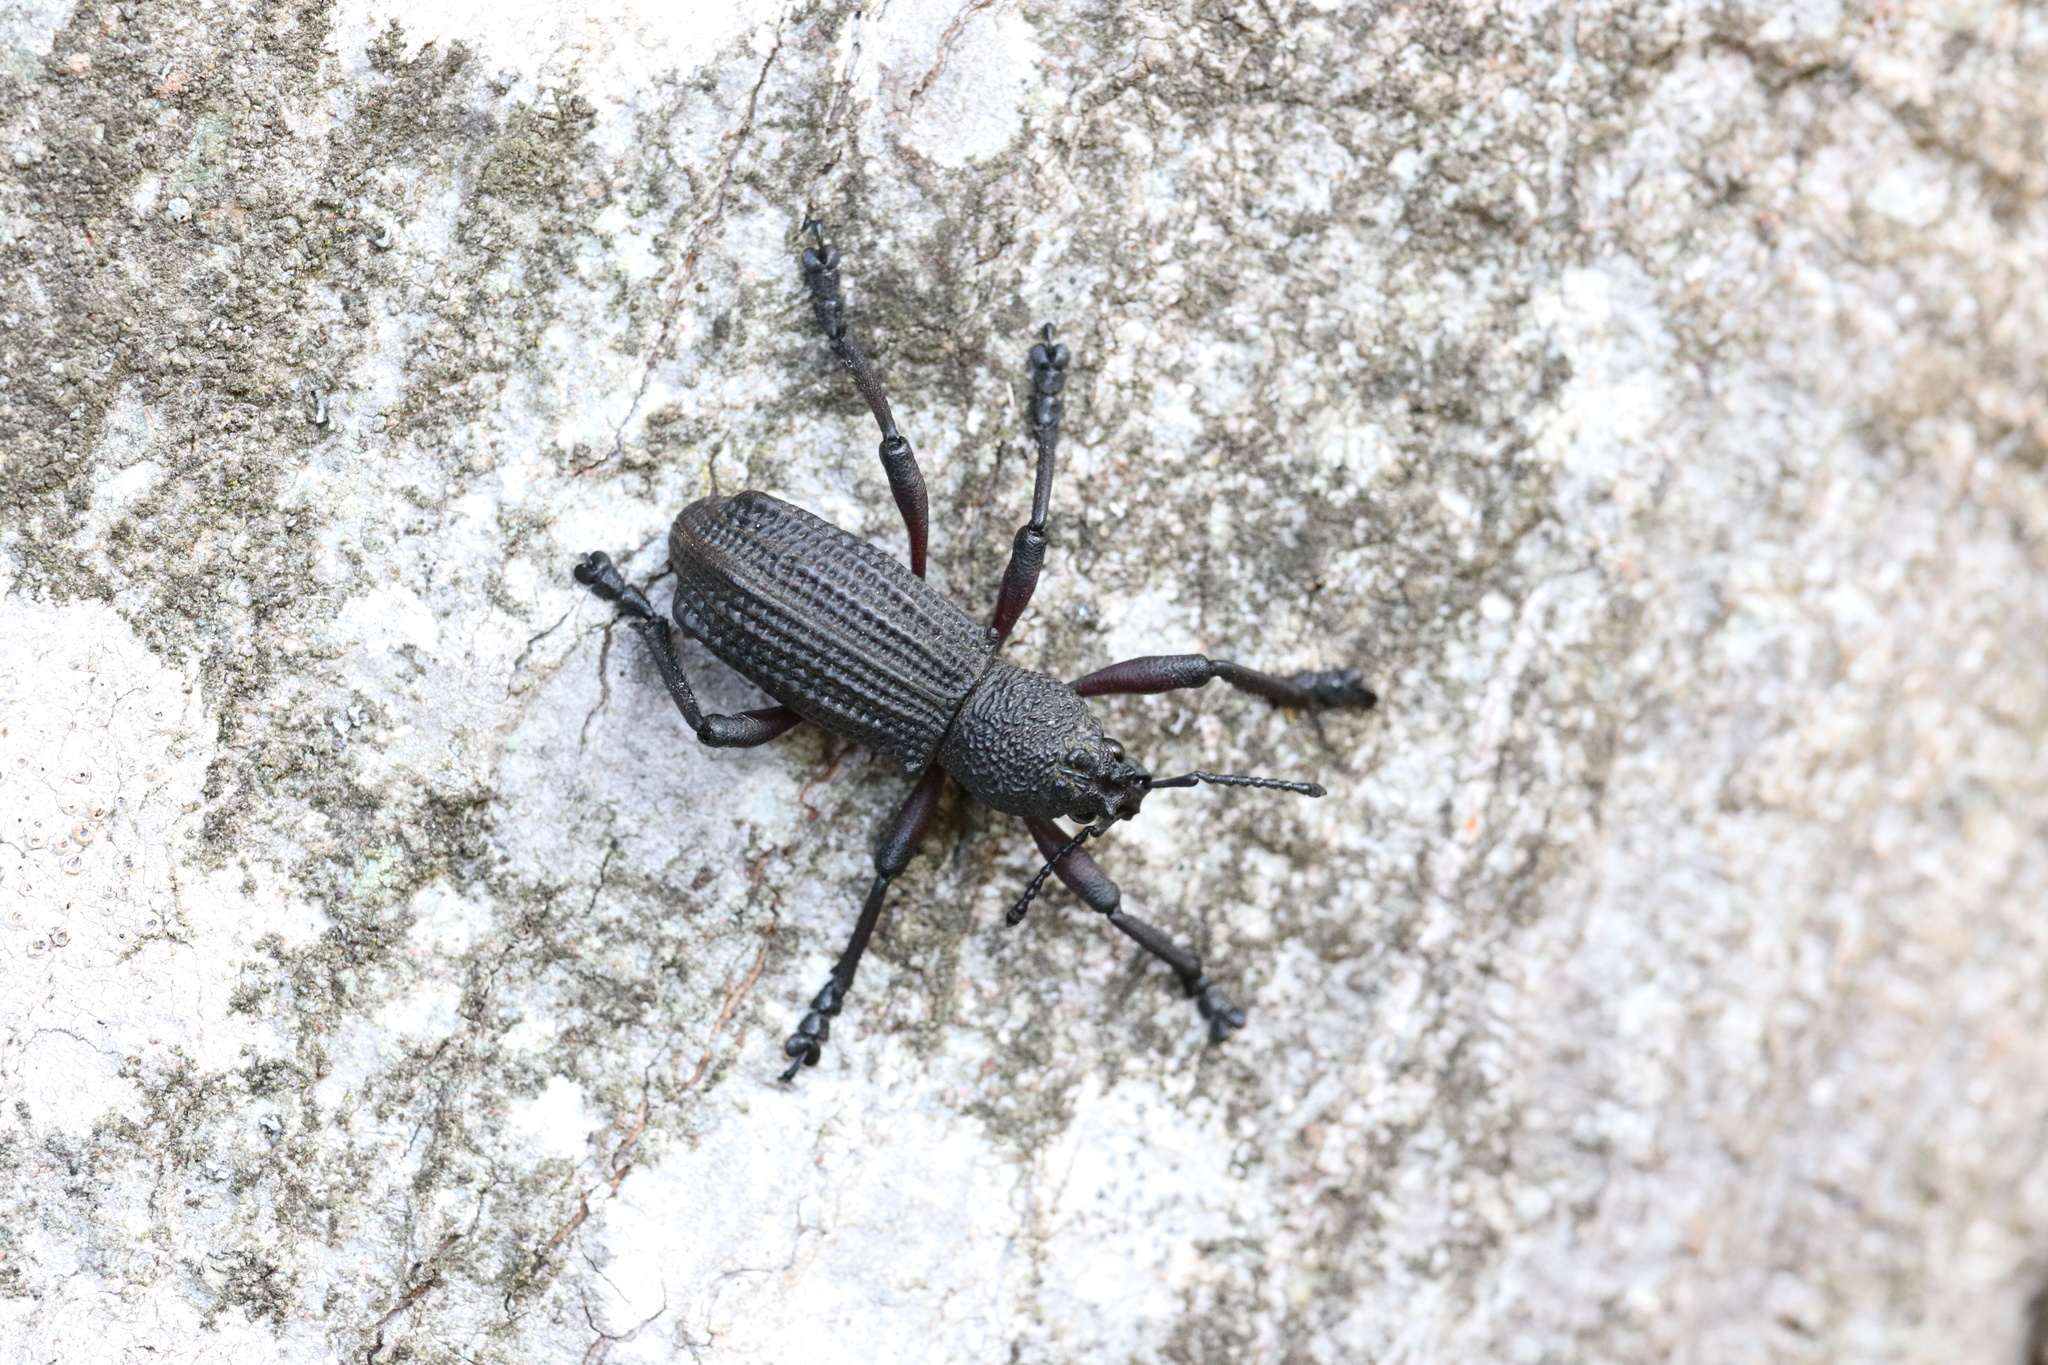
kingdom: Animalia
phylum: Arthropoda
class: Insecta
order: Coleoptera
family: Curculionidae
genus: Aegorhinus
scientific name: Aegorhinus
